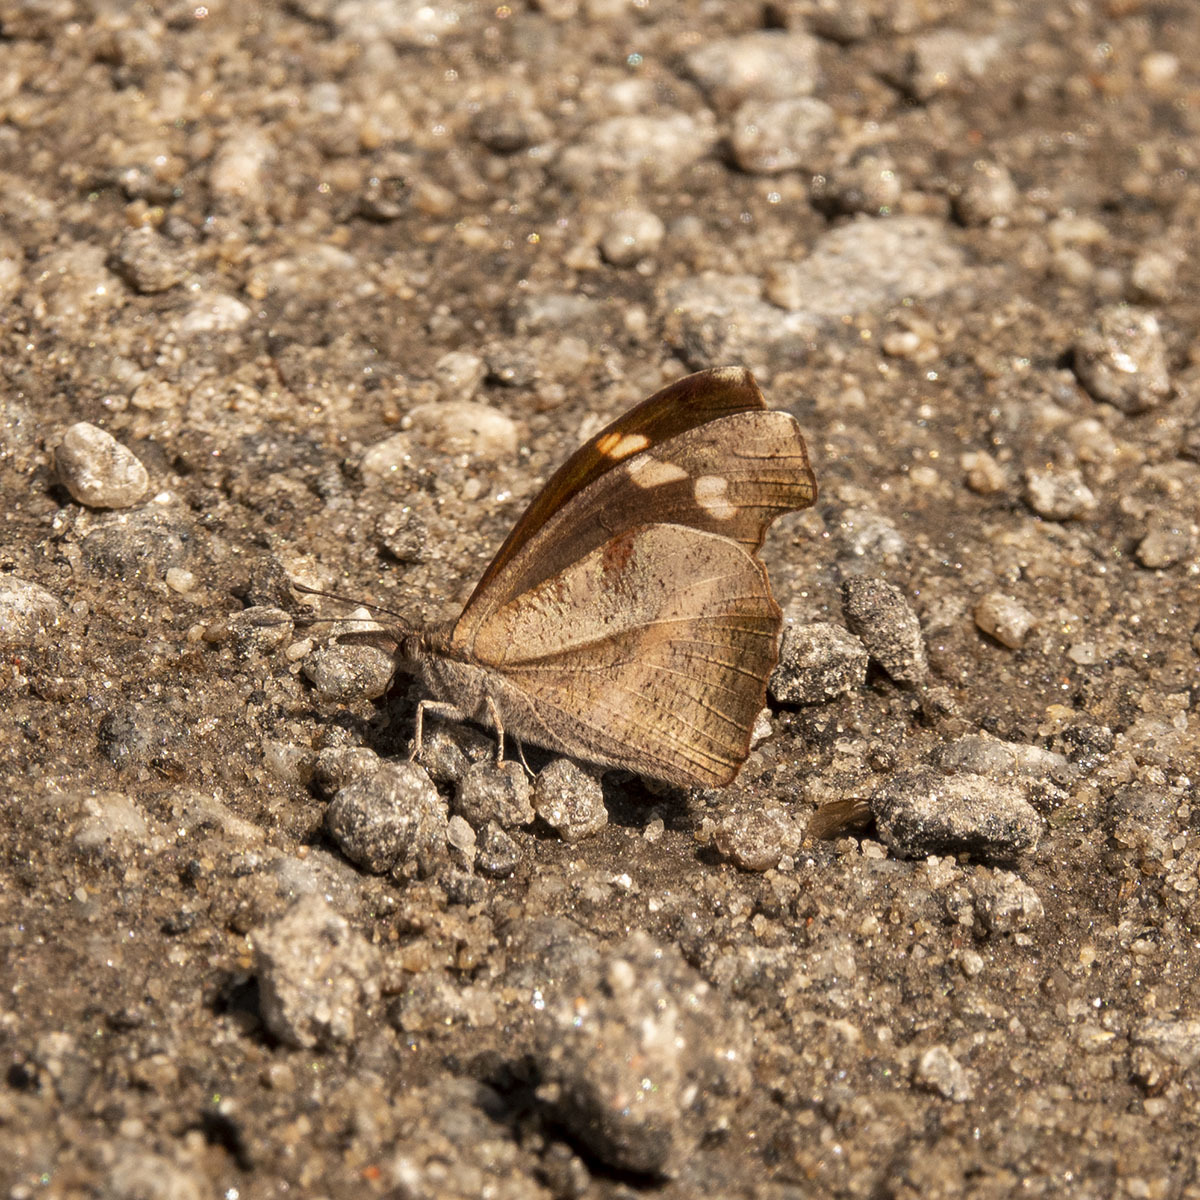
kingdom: Animalia
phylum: Arthropoda
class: Insecta
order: Lepidoptera
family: Nymphalidae
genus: Libythea
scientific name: Libythea myrrha
